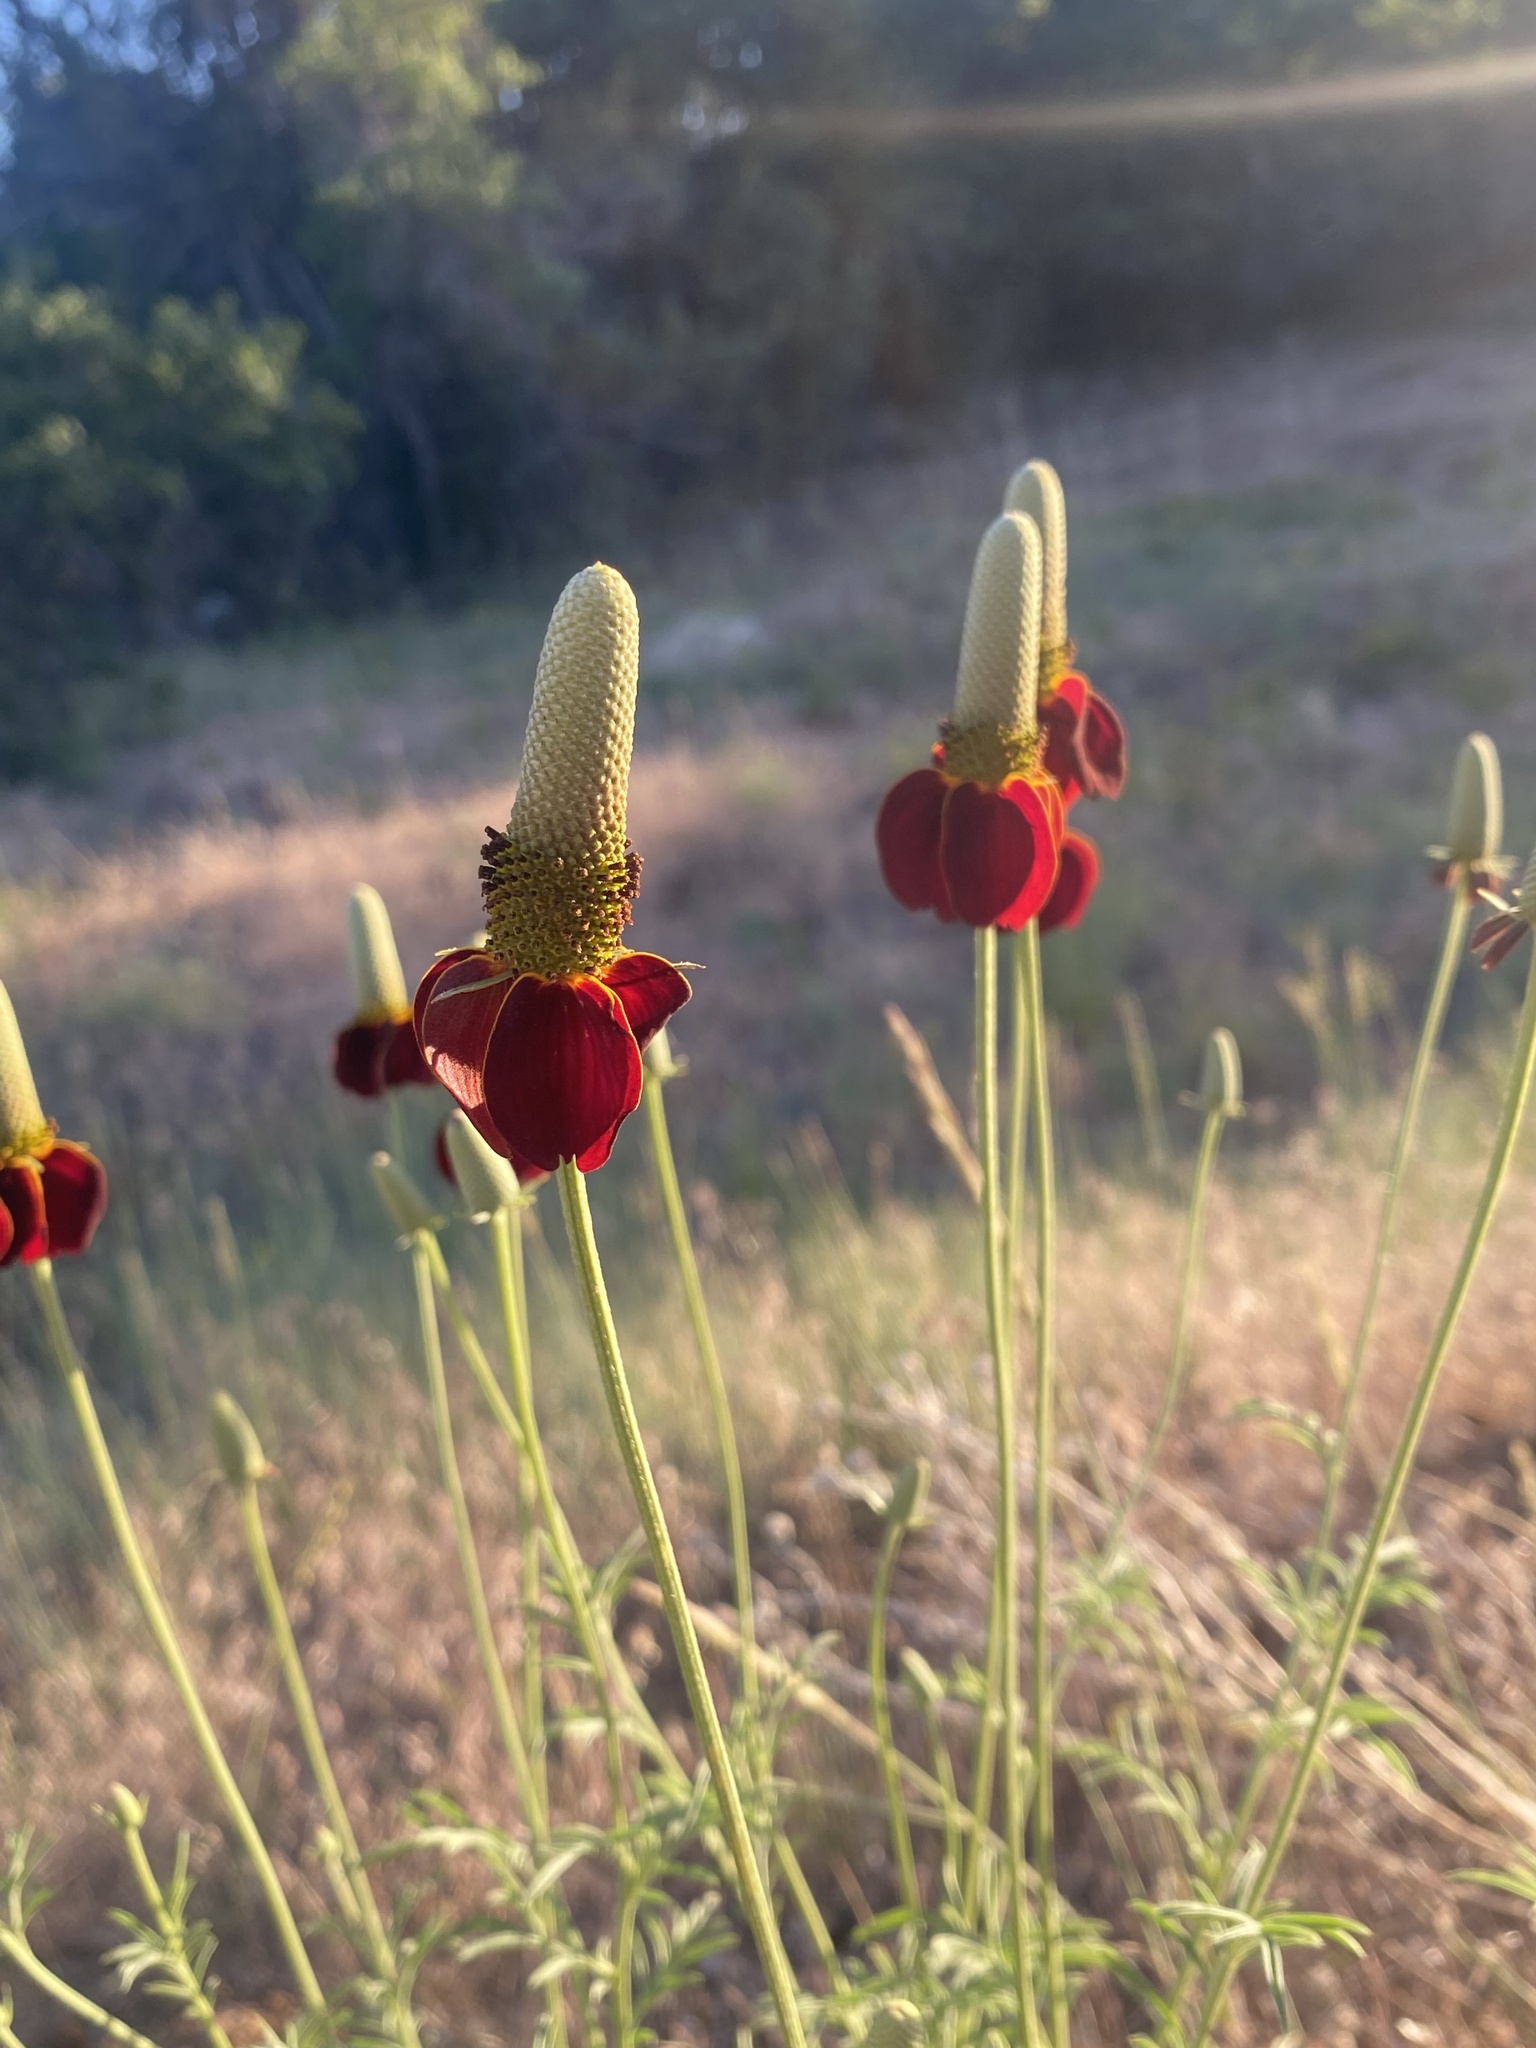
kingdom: Plantae
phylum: Tracheophyta
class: Magnoliopsida
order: Asterales
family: Asteraceae
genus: Ratibida
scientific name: Ratibida columnifera
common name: Prairie coneflower
